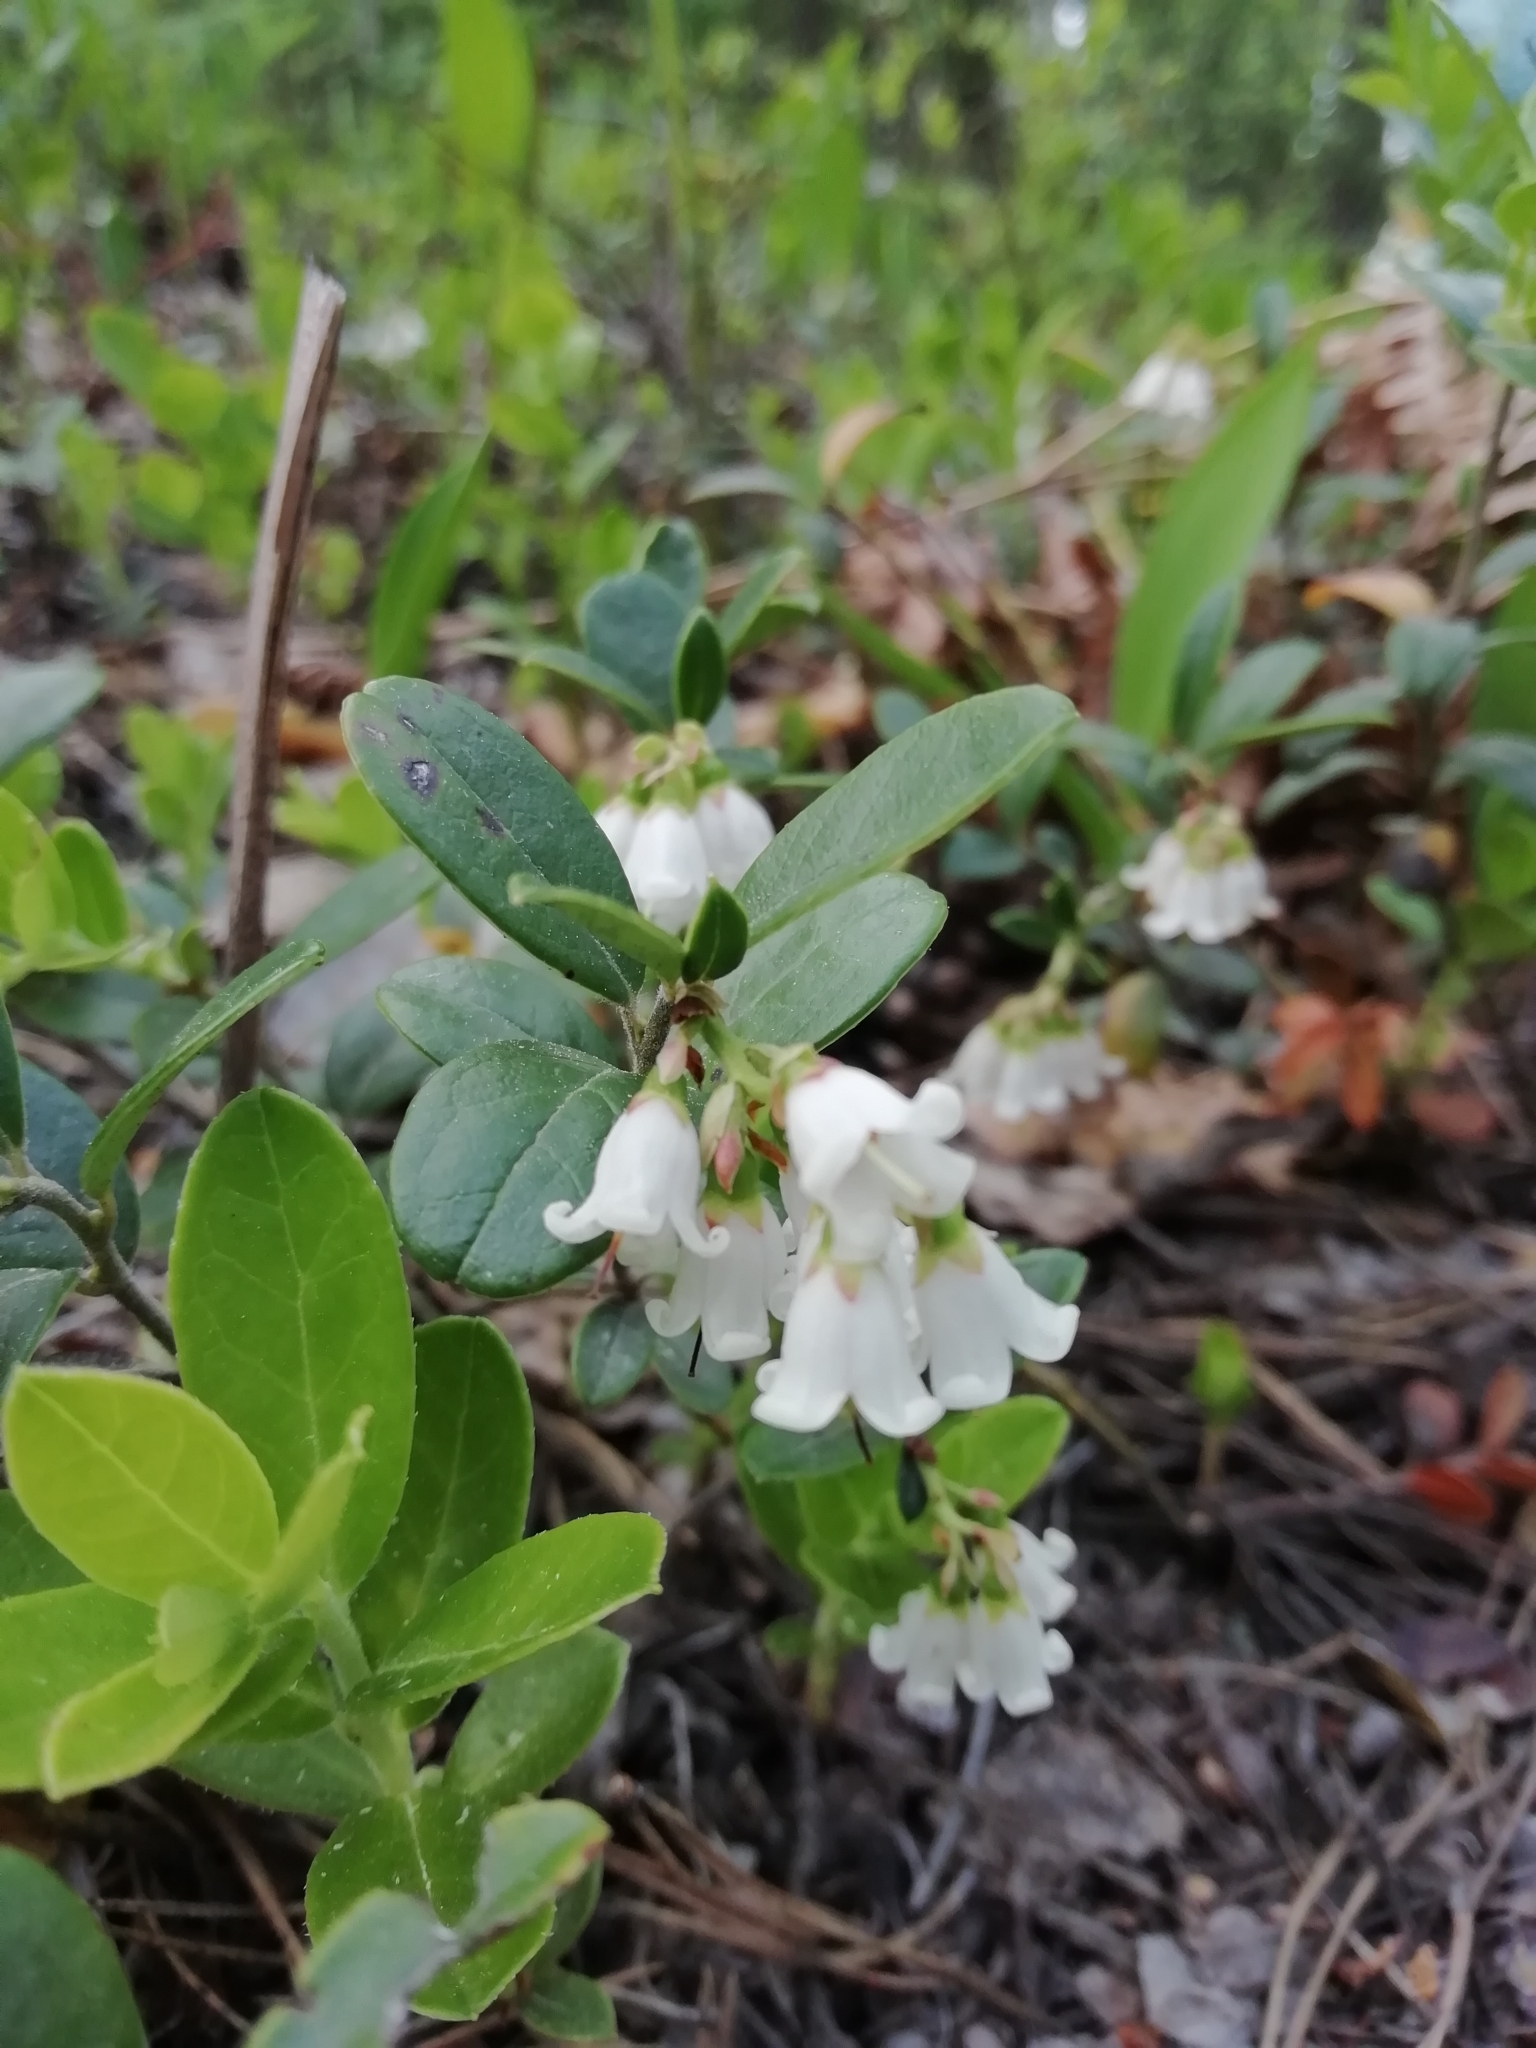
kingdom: Plantae
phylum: Tracheophyta
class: Magnoliopsida
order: Ericales
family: Ericaceae
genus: Vaccinium
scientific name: Vaccinium vitis-idaea
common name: Cowberry
